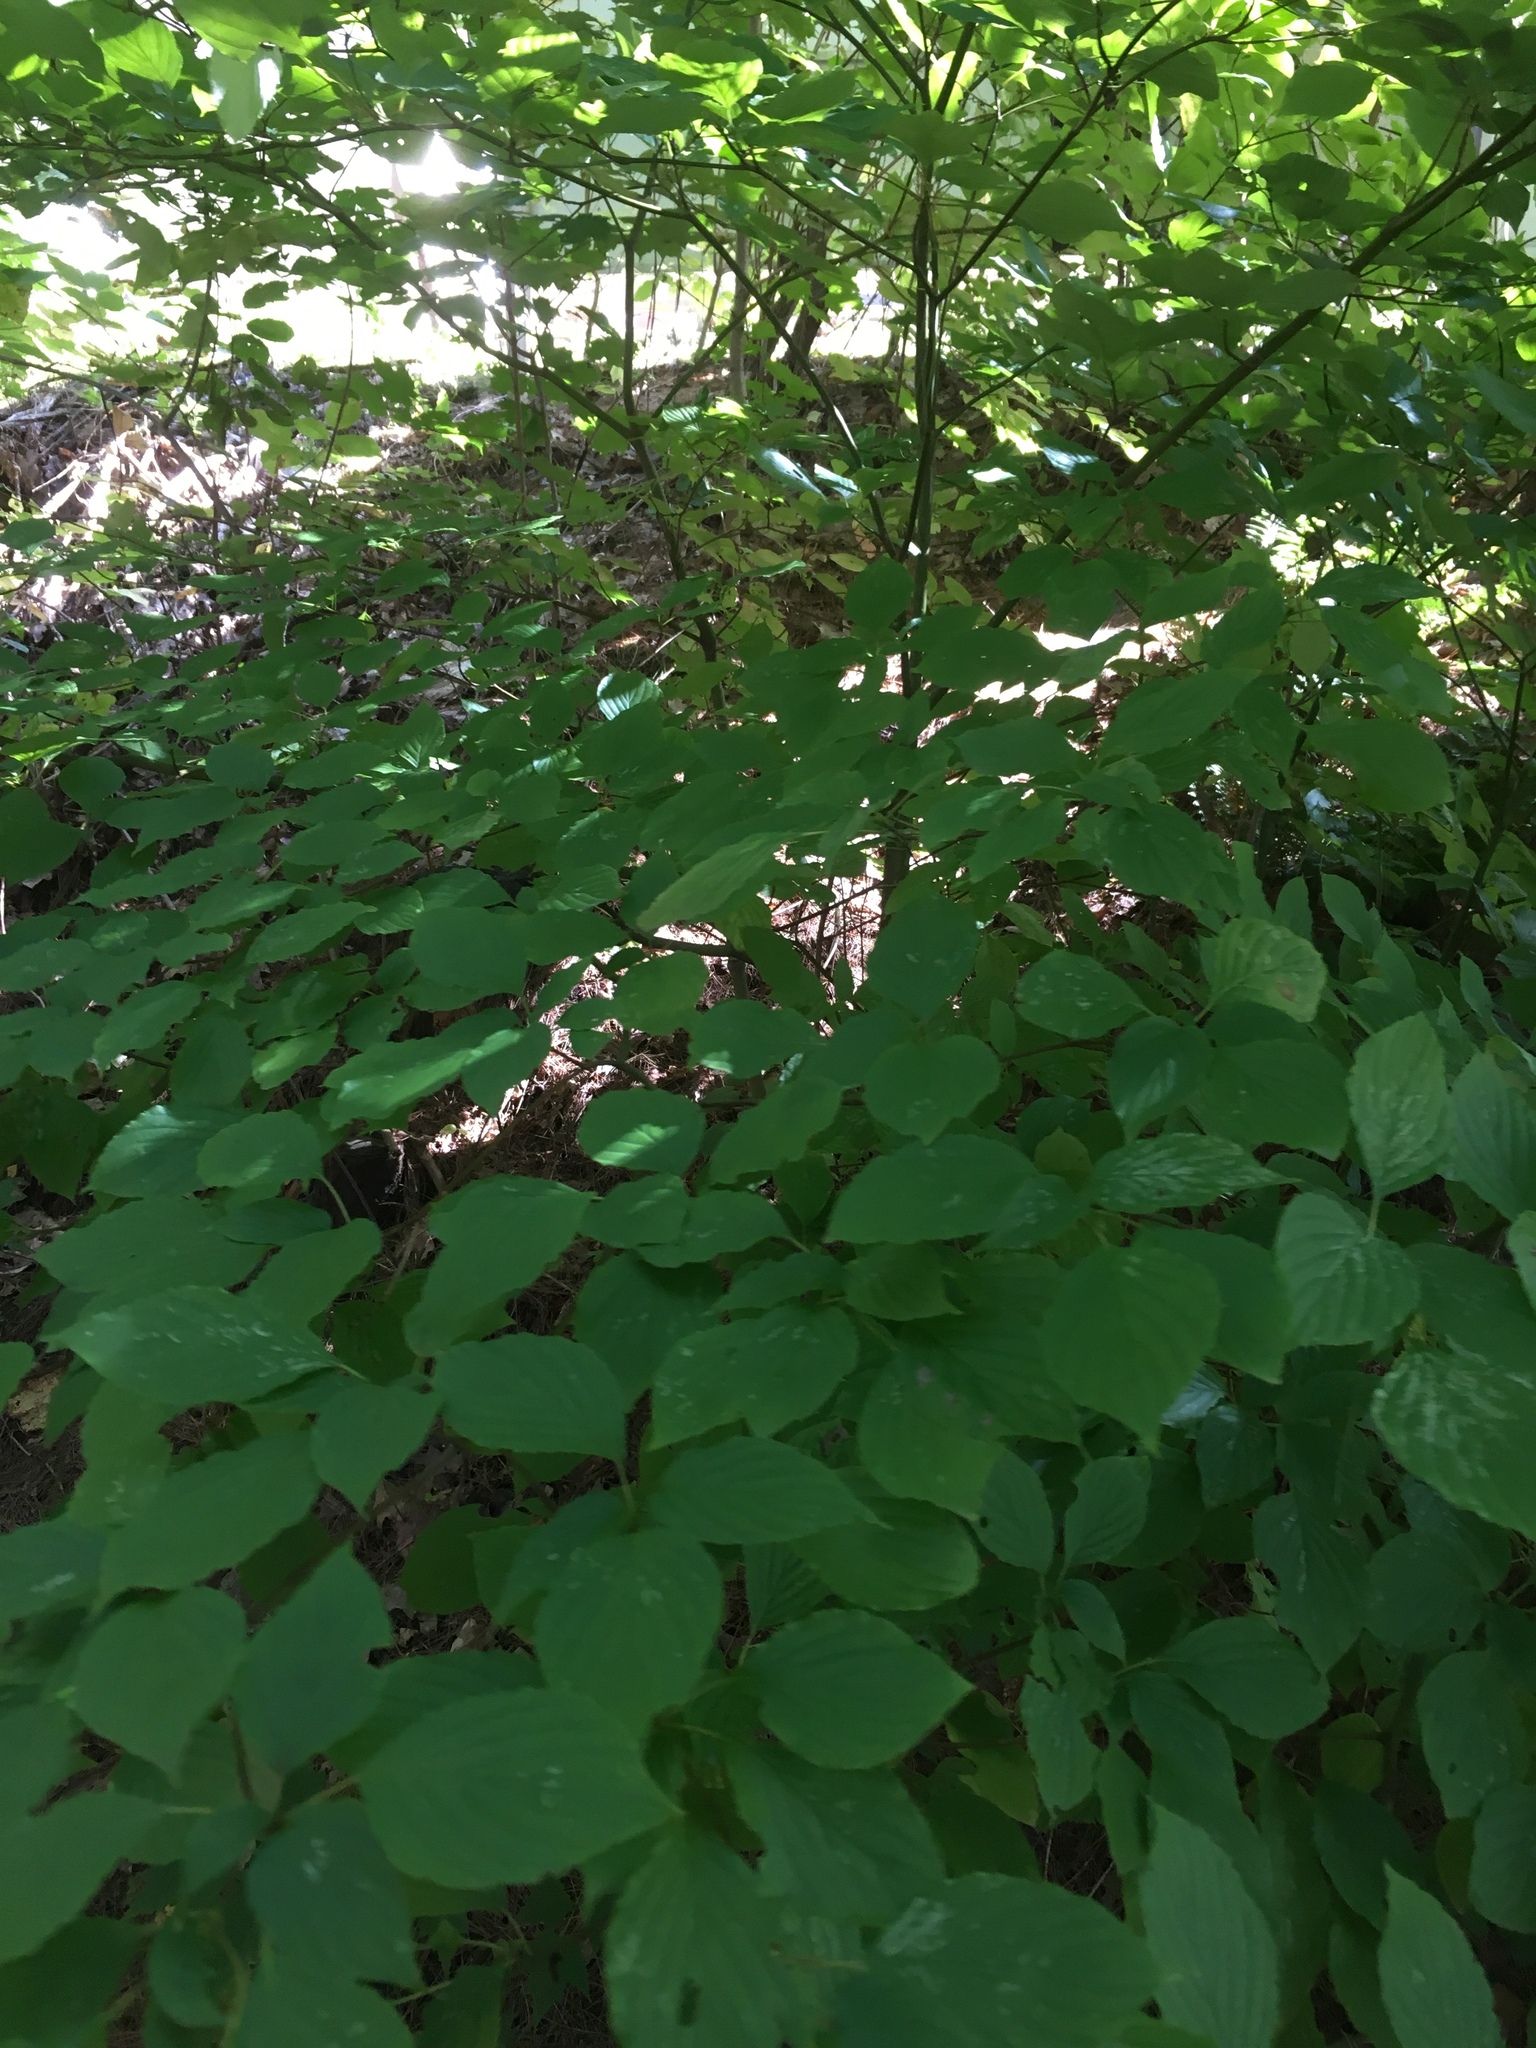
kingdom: Plantae
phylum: Tracheophyta
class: Magnoliopsida
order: Cornales
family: Cornaceae
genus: Cornus
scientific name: Cornus alternifolia
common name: Pagoda dogwood
